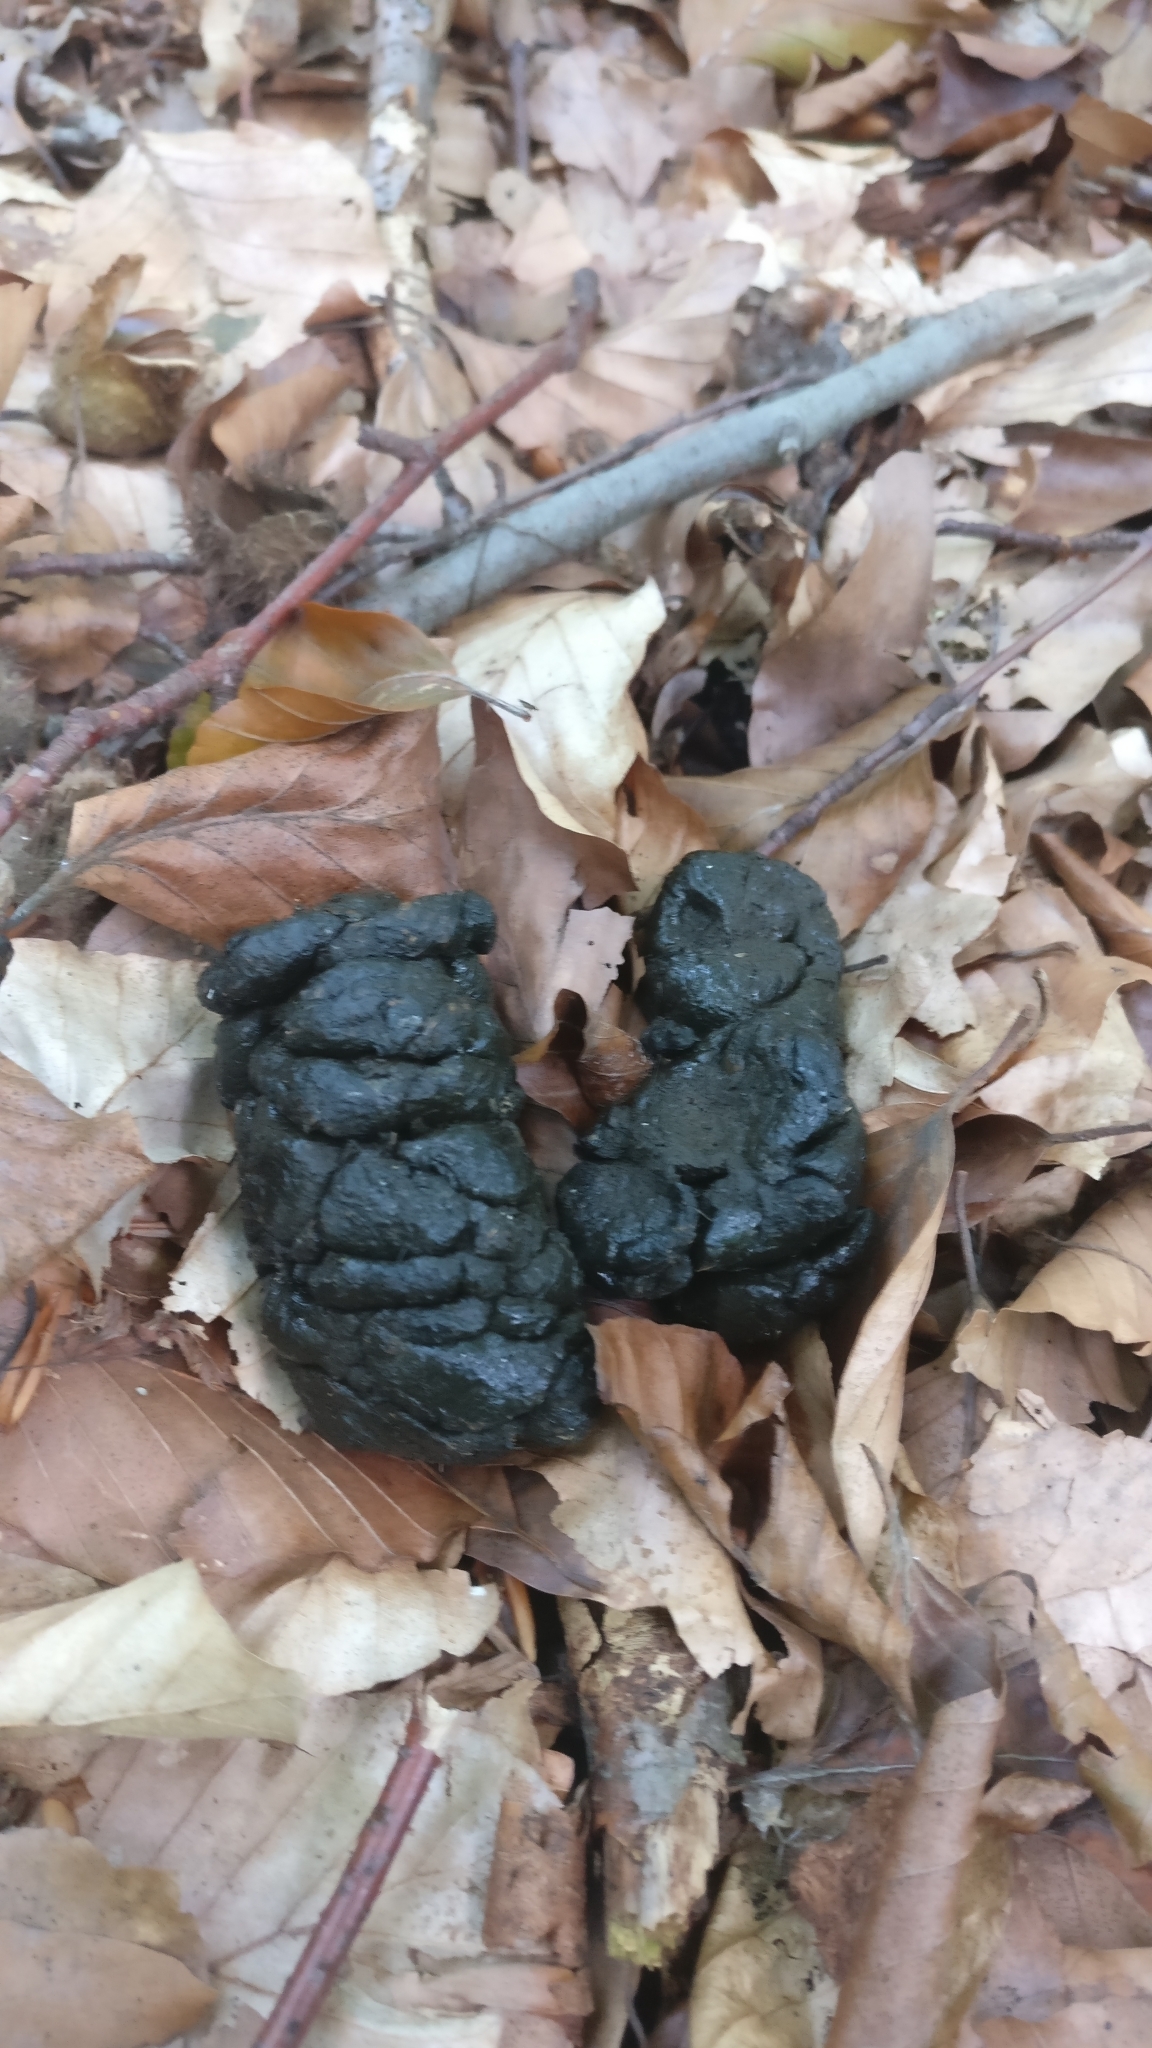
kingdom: Animalia
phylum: Chordata
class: Mammalia
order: Artiodactyla
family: Suidae
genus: Sus
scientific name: Sus scrofa
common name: Wild boar
